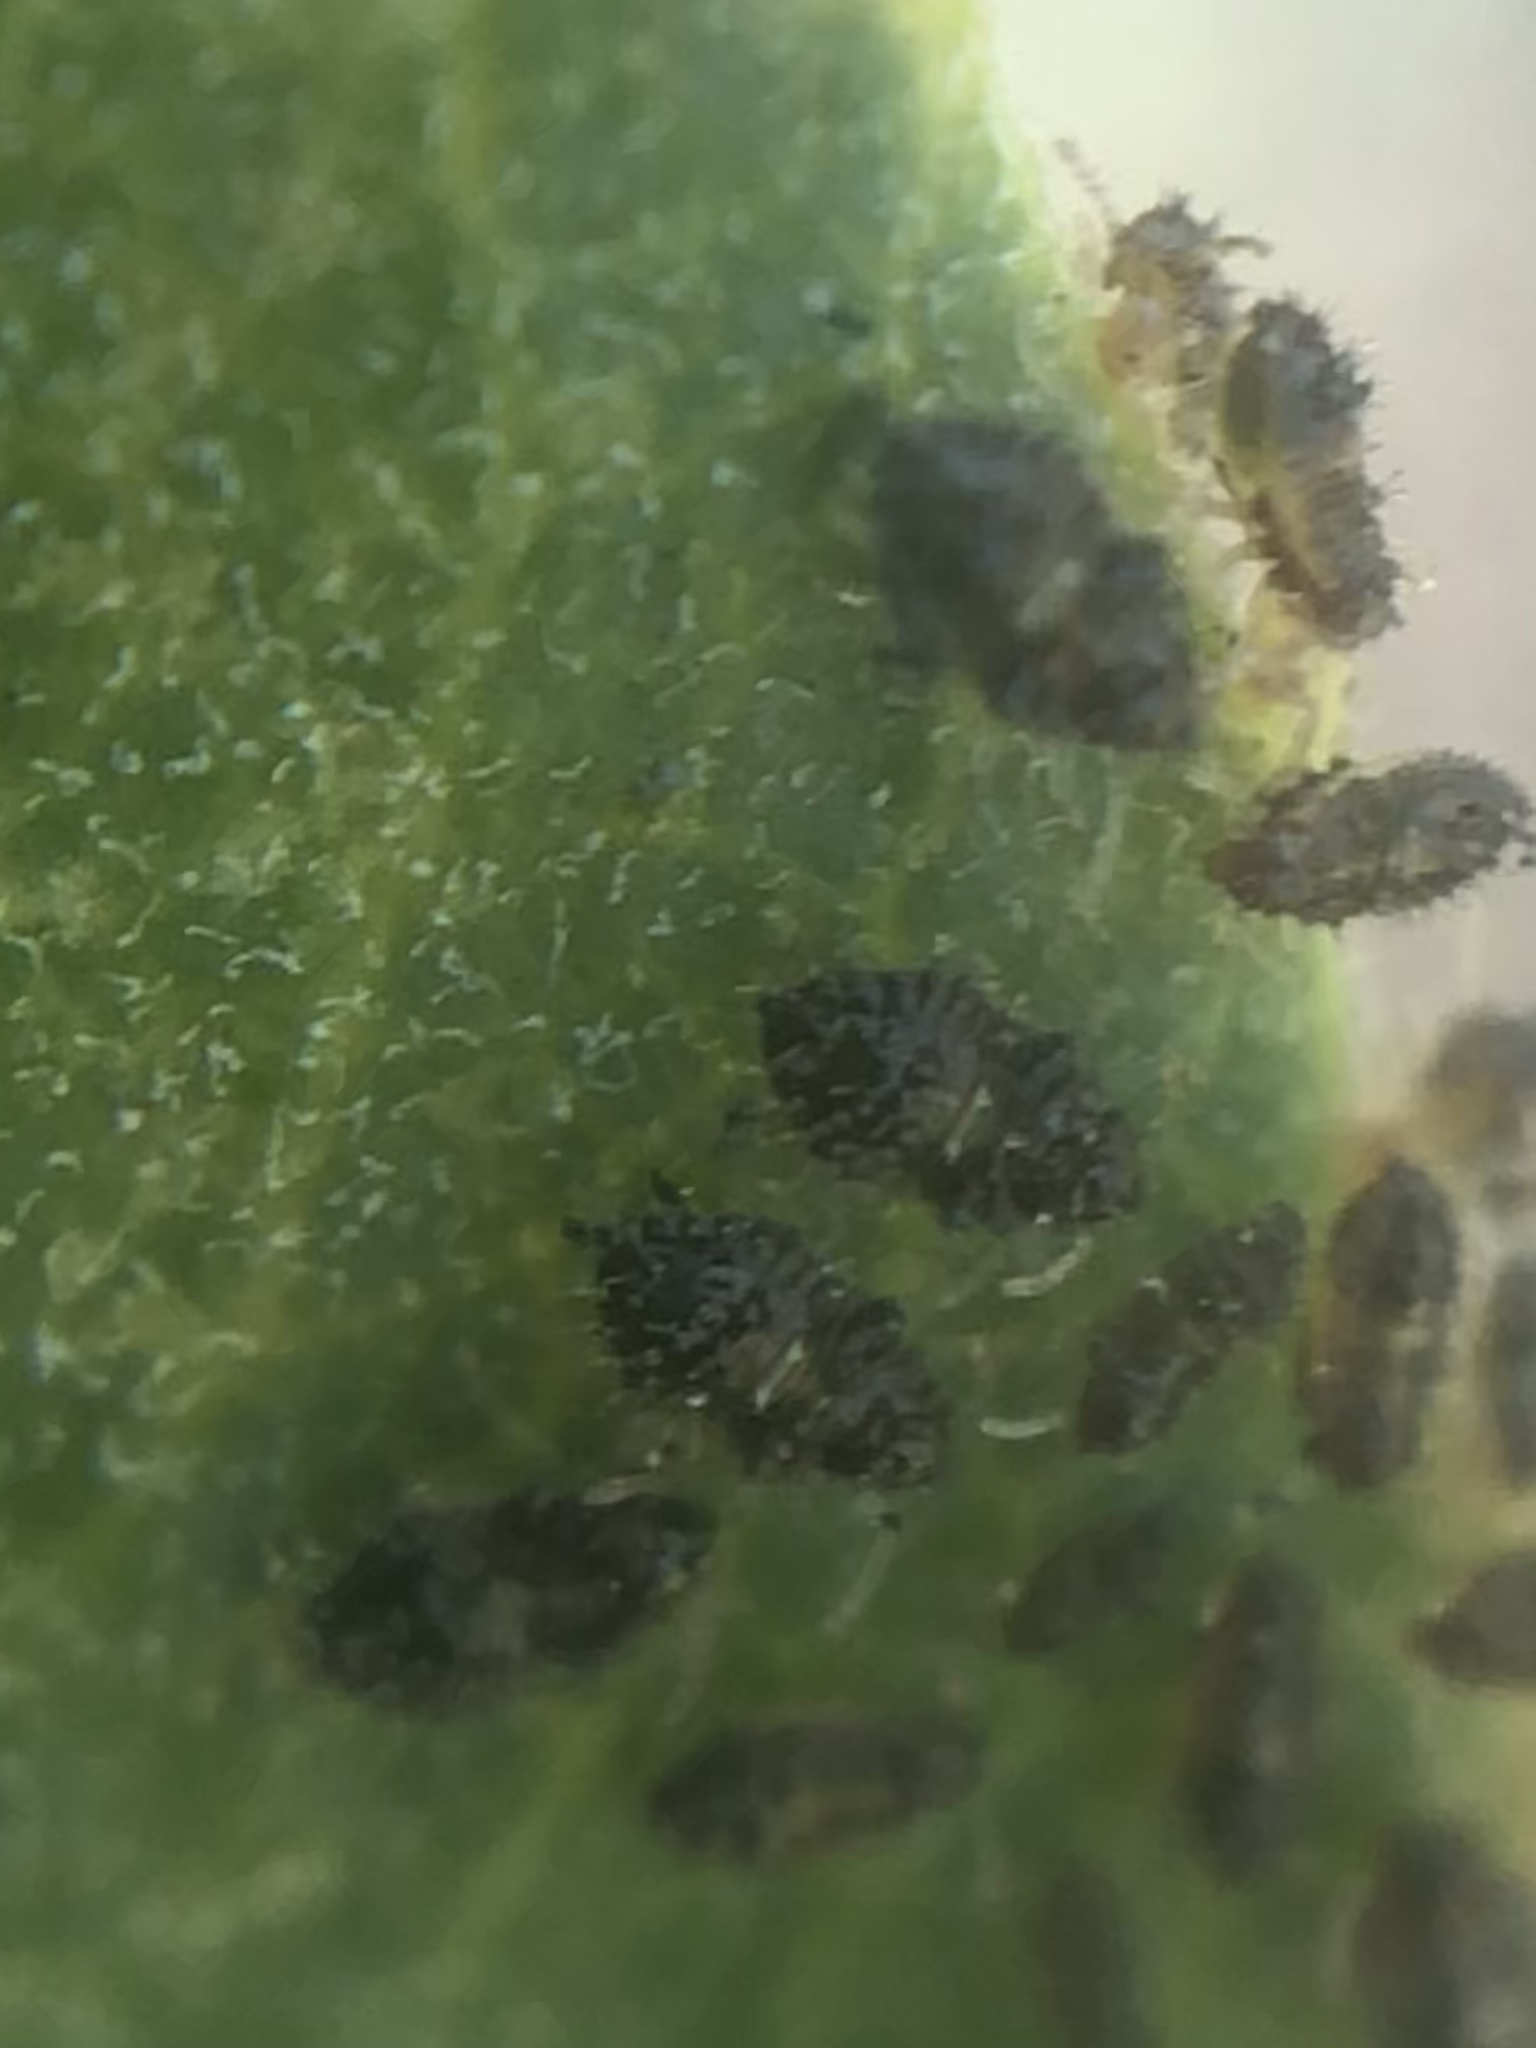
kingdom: Animalia
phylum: Arthropoda
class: Insecta
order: Hemiptera
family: Tingidae
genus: Corythucha
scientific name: Corythucha sagillata
